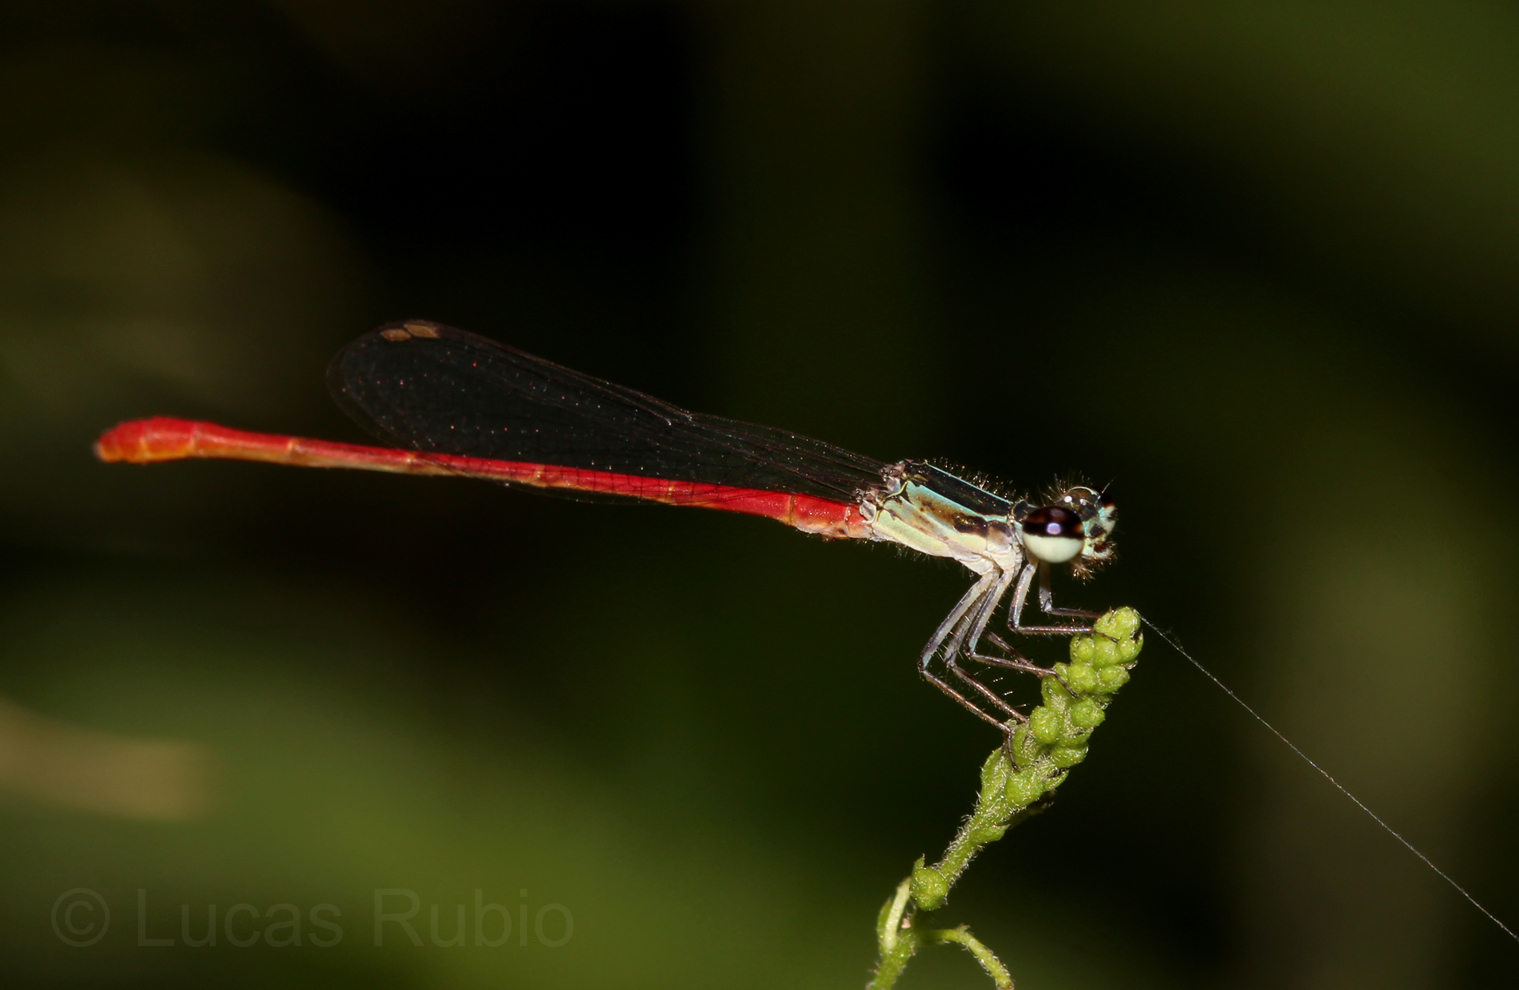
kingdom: Animalia
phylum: Arthropoda
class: Insecta
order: Odonata
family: Coenagrionidae
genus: Telebasis
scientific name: Telebasis willinki
